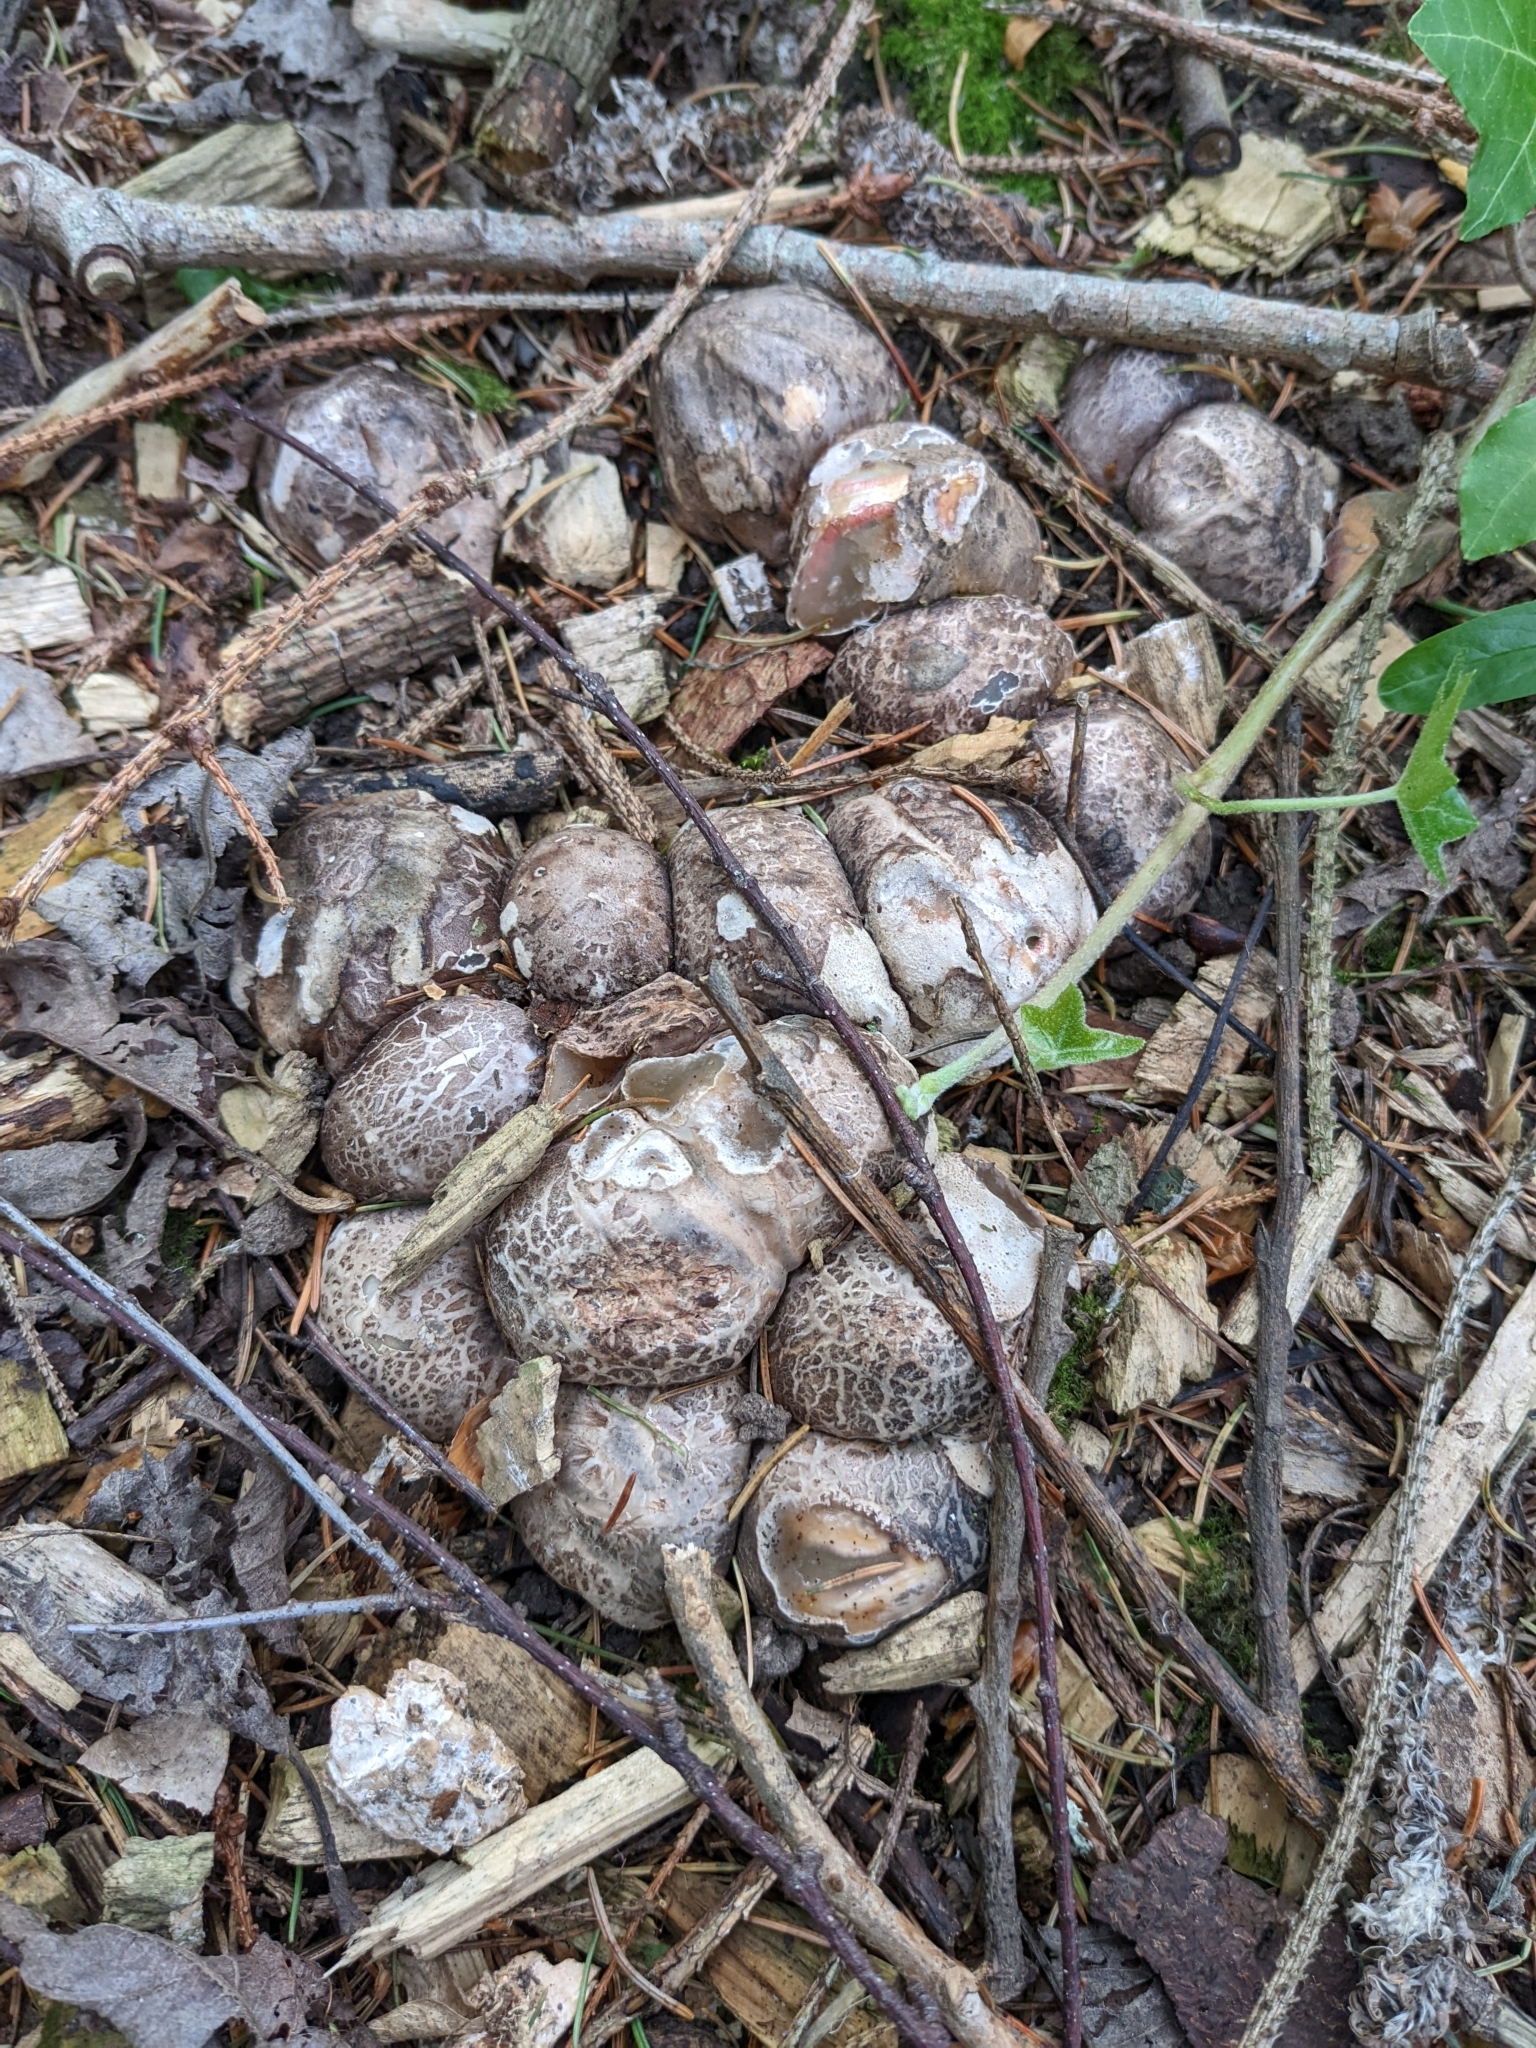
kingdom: Fungi
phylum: Basidiomycota
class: Agaricomycetes
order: Phallales
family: Phallaceae
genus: Clathrus
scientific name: Clathrus archeri
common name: Devil's fingers
